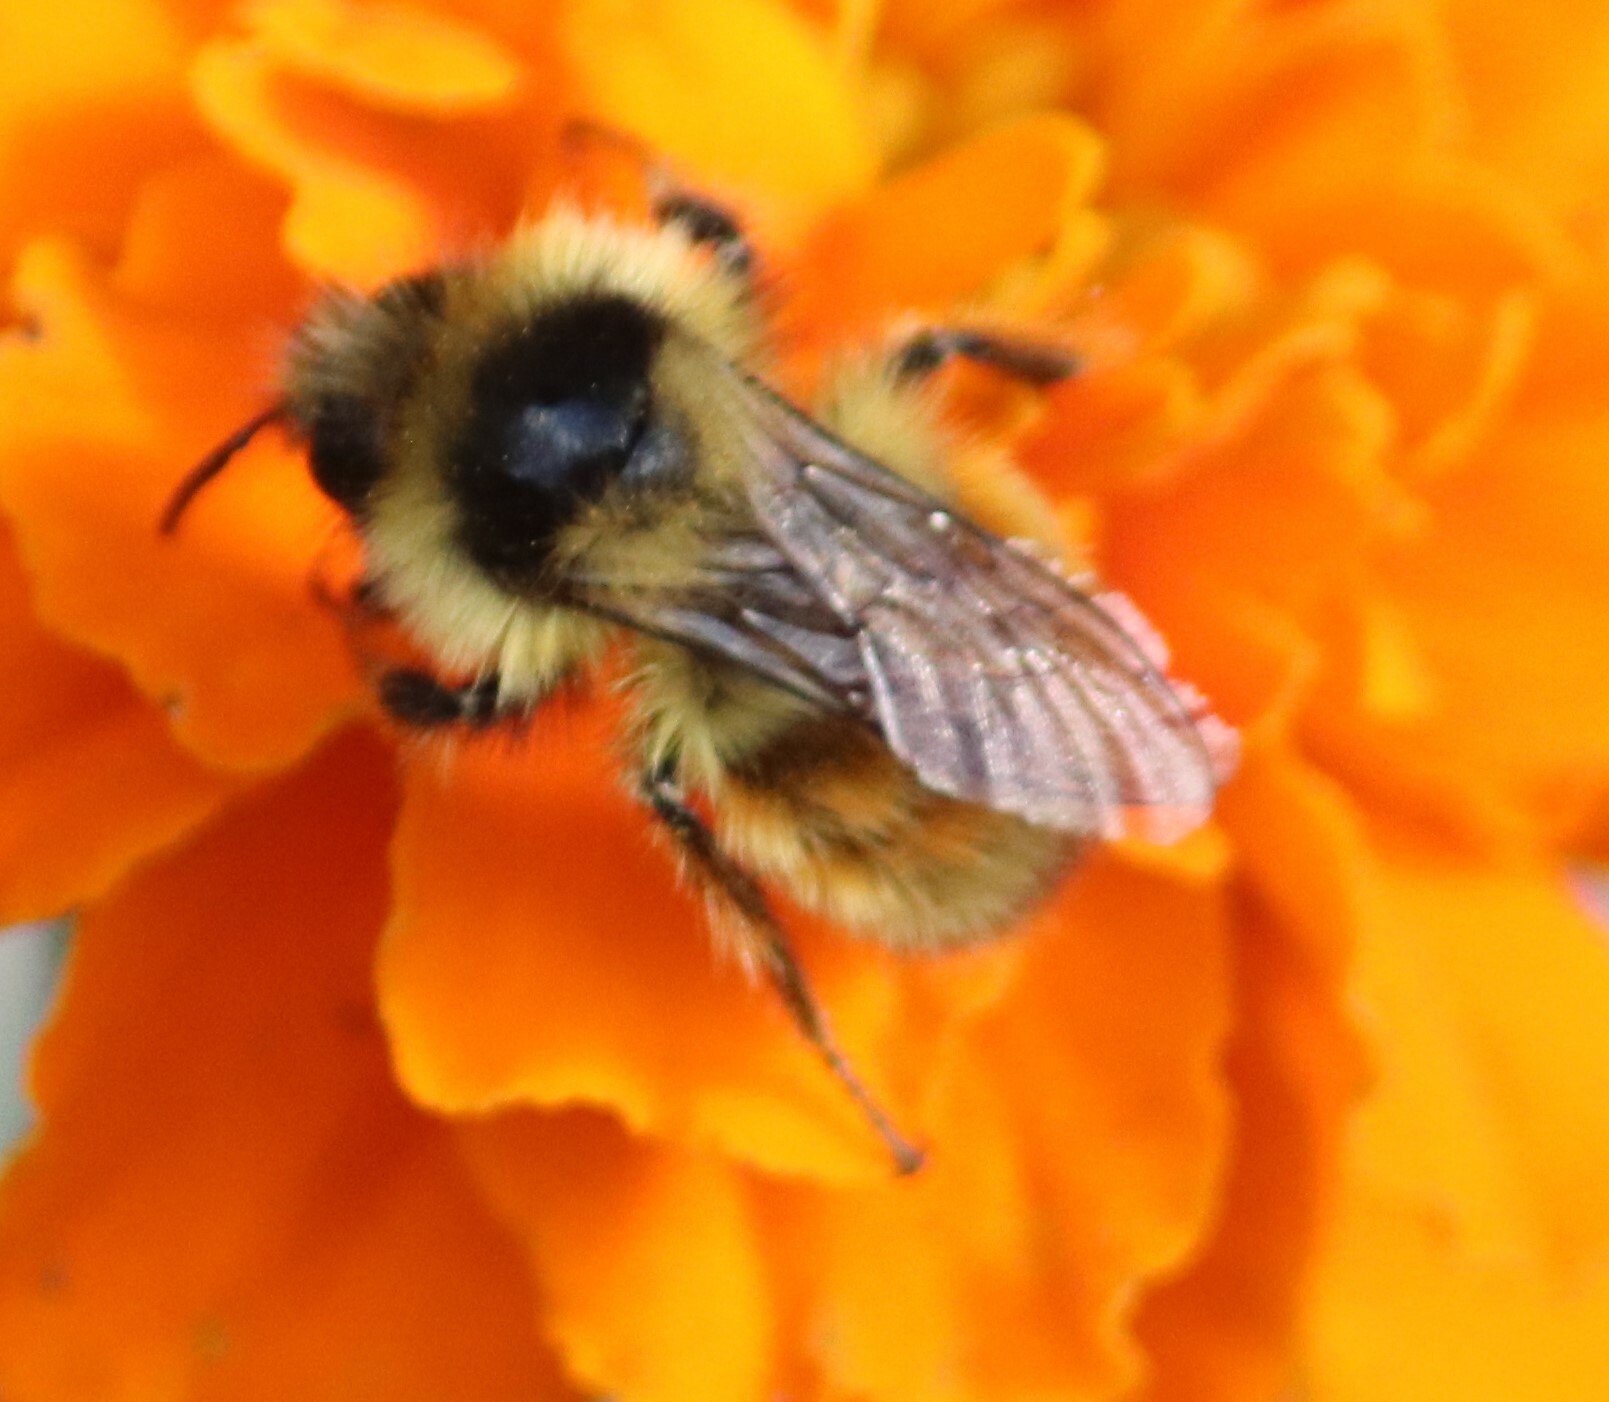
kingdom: Animalia
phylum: Arthropoda
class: Insecta
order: Hymenoptera
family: Apidae
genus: Bombus
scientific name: Bombus ternarius
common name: Tri-colored bumble bee
